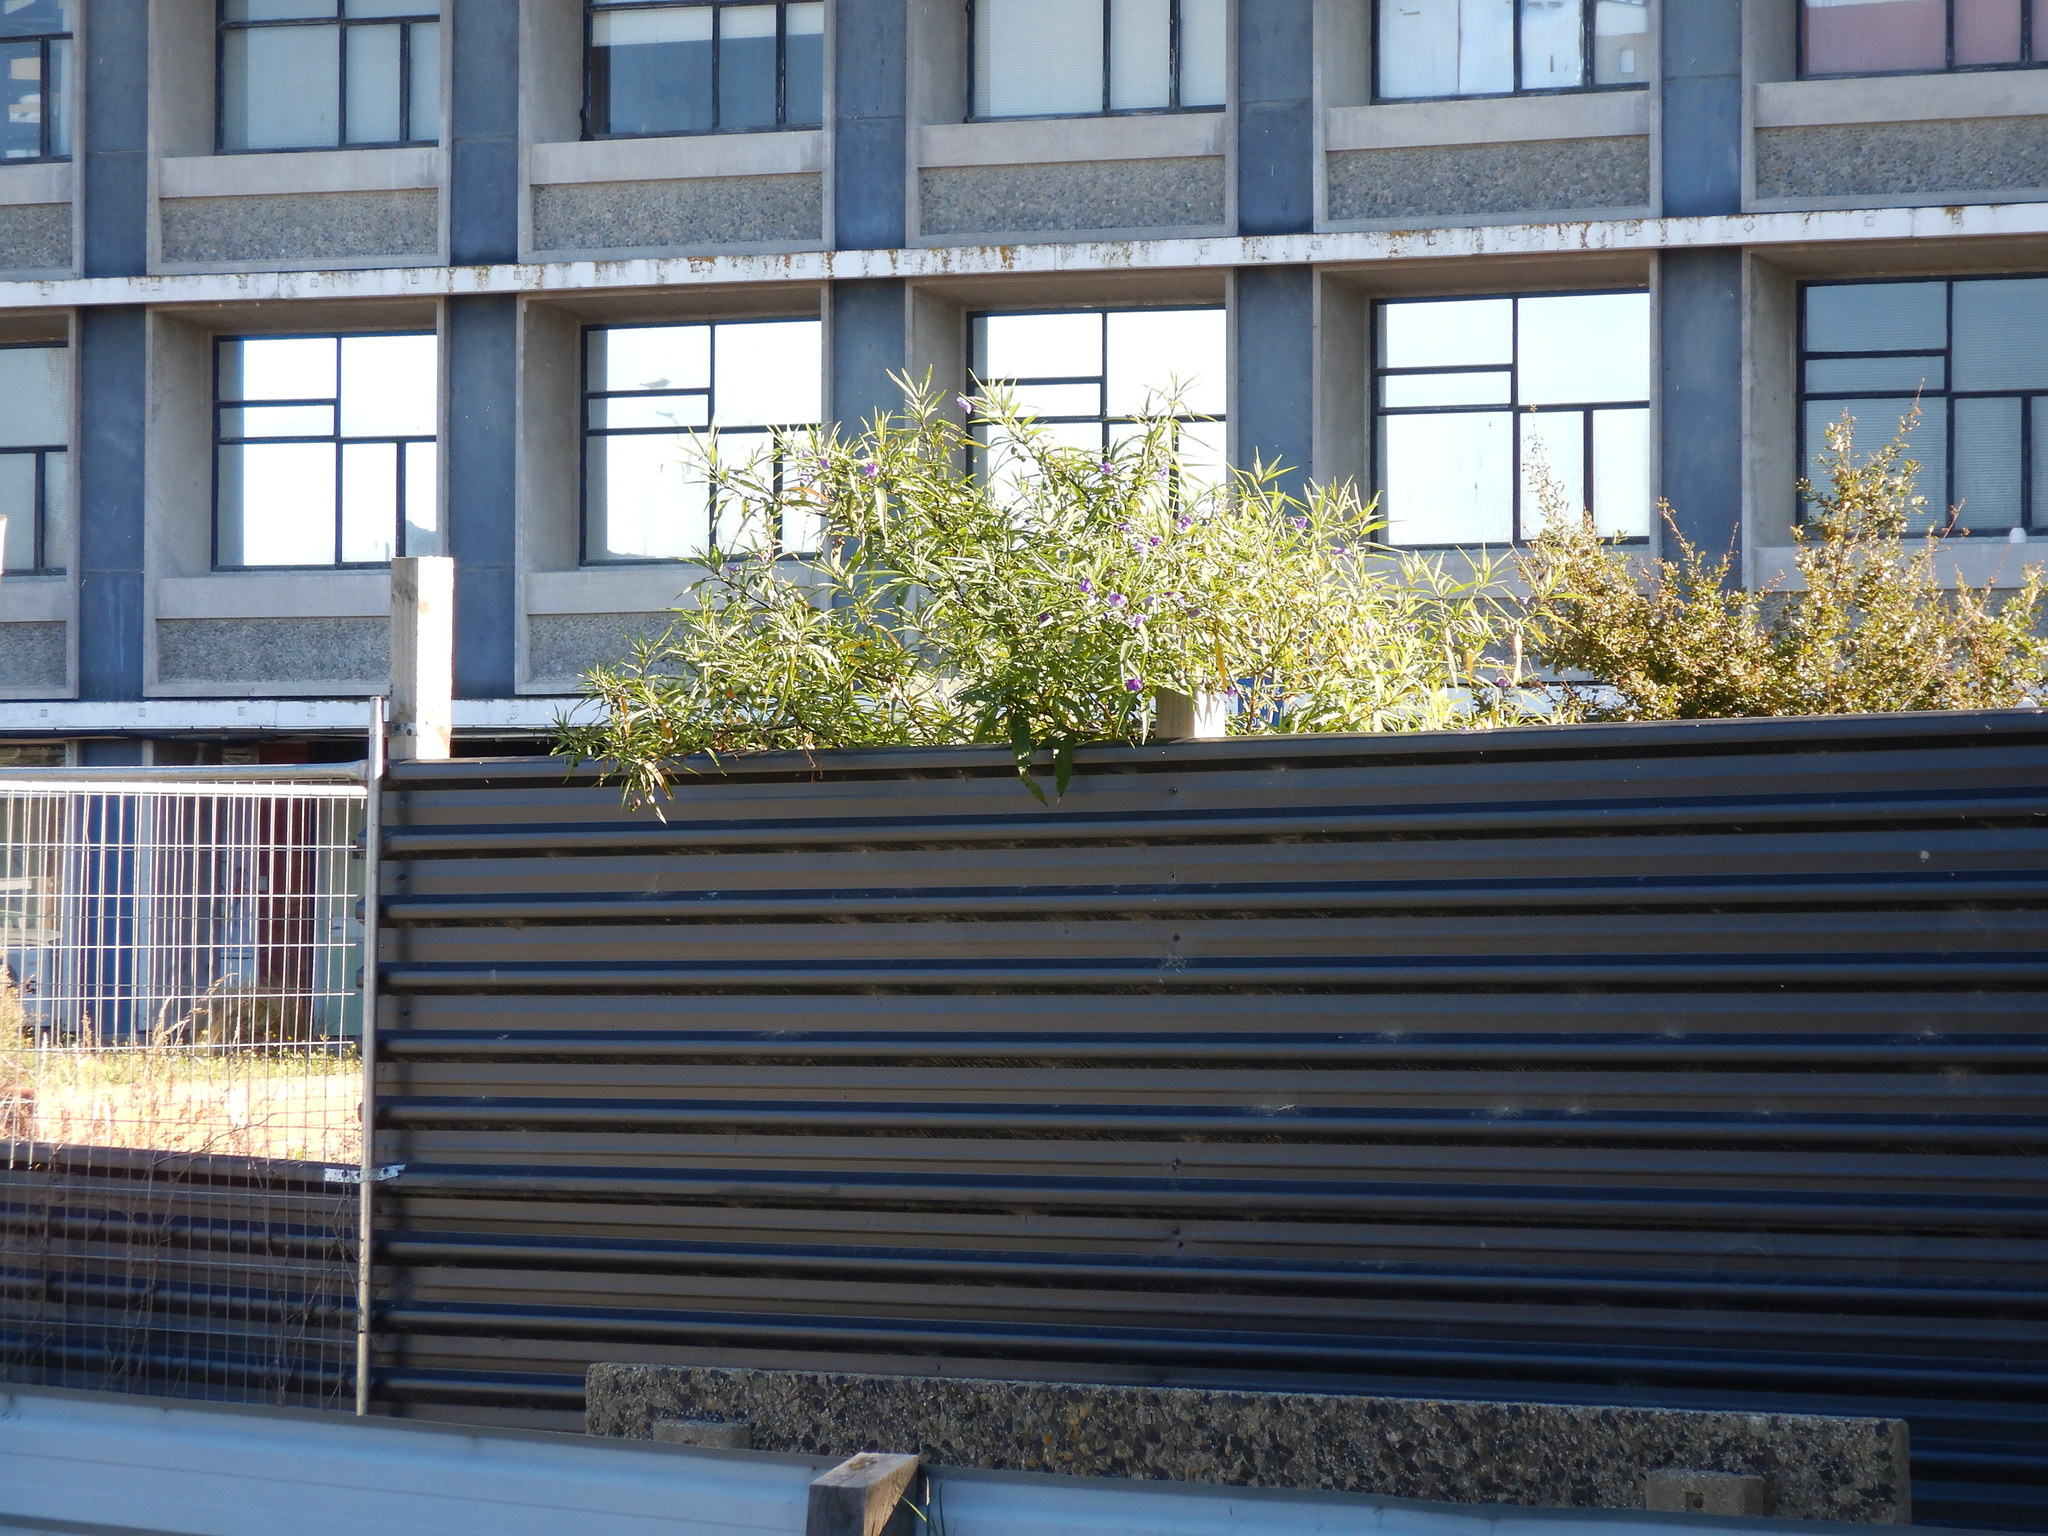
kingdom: Plantae
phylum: Tracheophyta
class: Magnoliopsida
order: Solanales
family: Solanaceae
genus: Solanum
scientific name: Solanum laciniatum
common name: Kangaroo-apple
